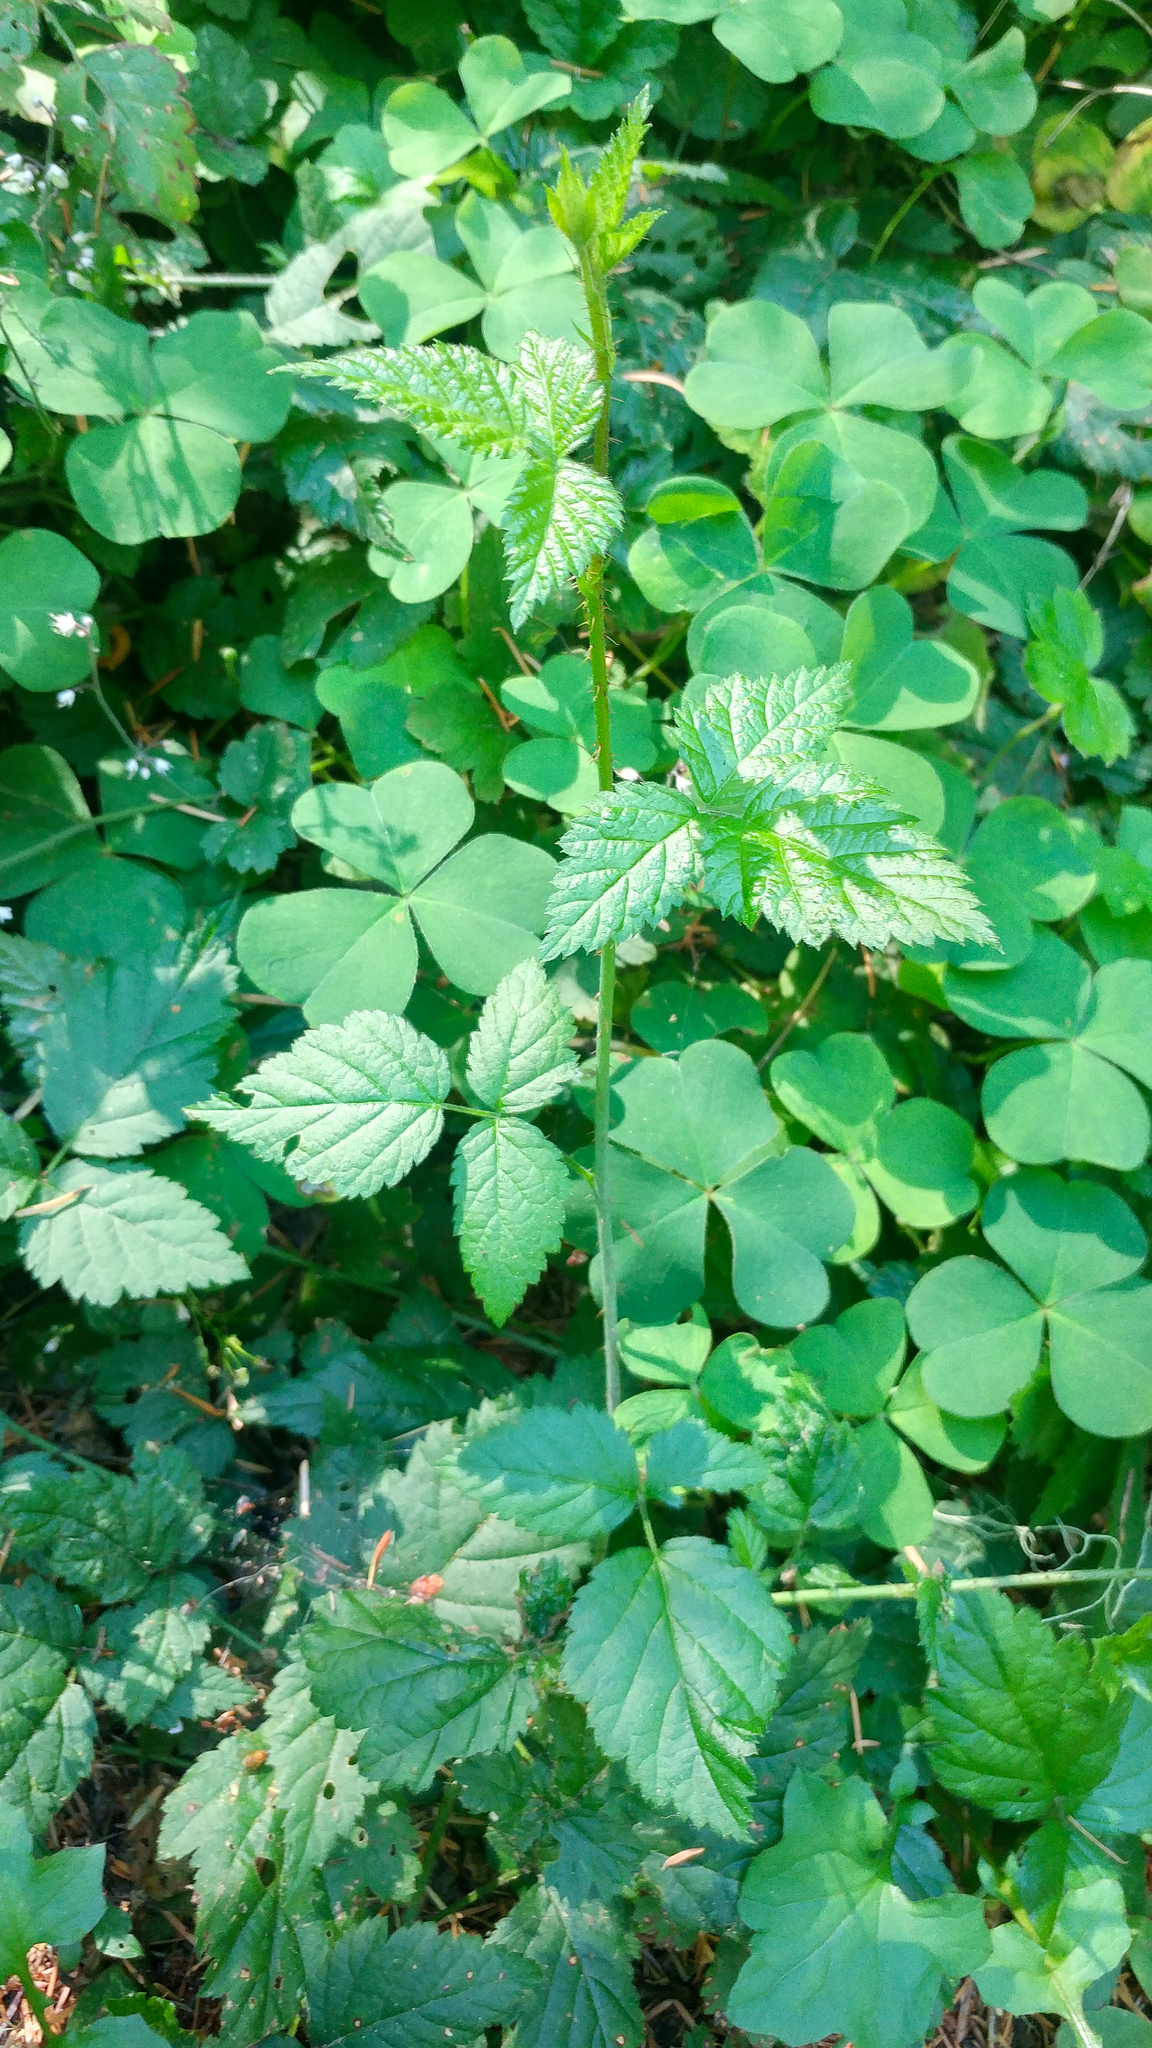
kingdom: Plantae
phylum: Tracheophyta
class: Magnoliopsida
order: Rosales
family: Rosaceae
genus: Rubus
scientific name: Rubus ursinus
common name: Pacific blackberry
